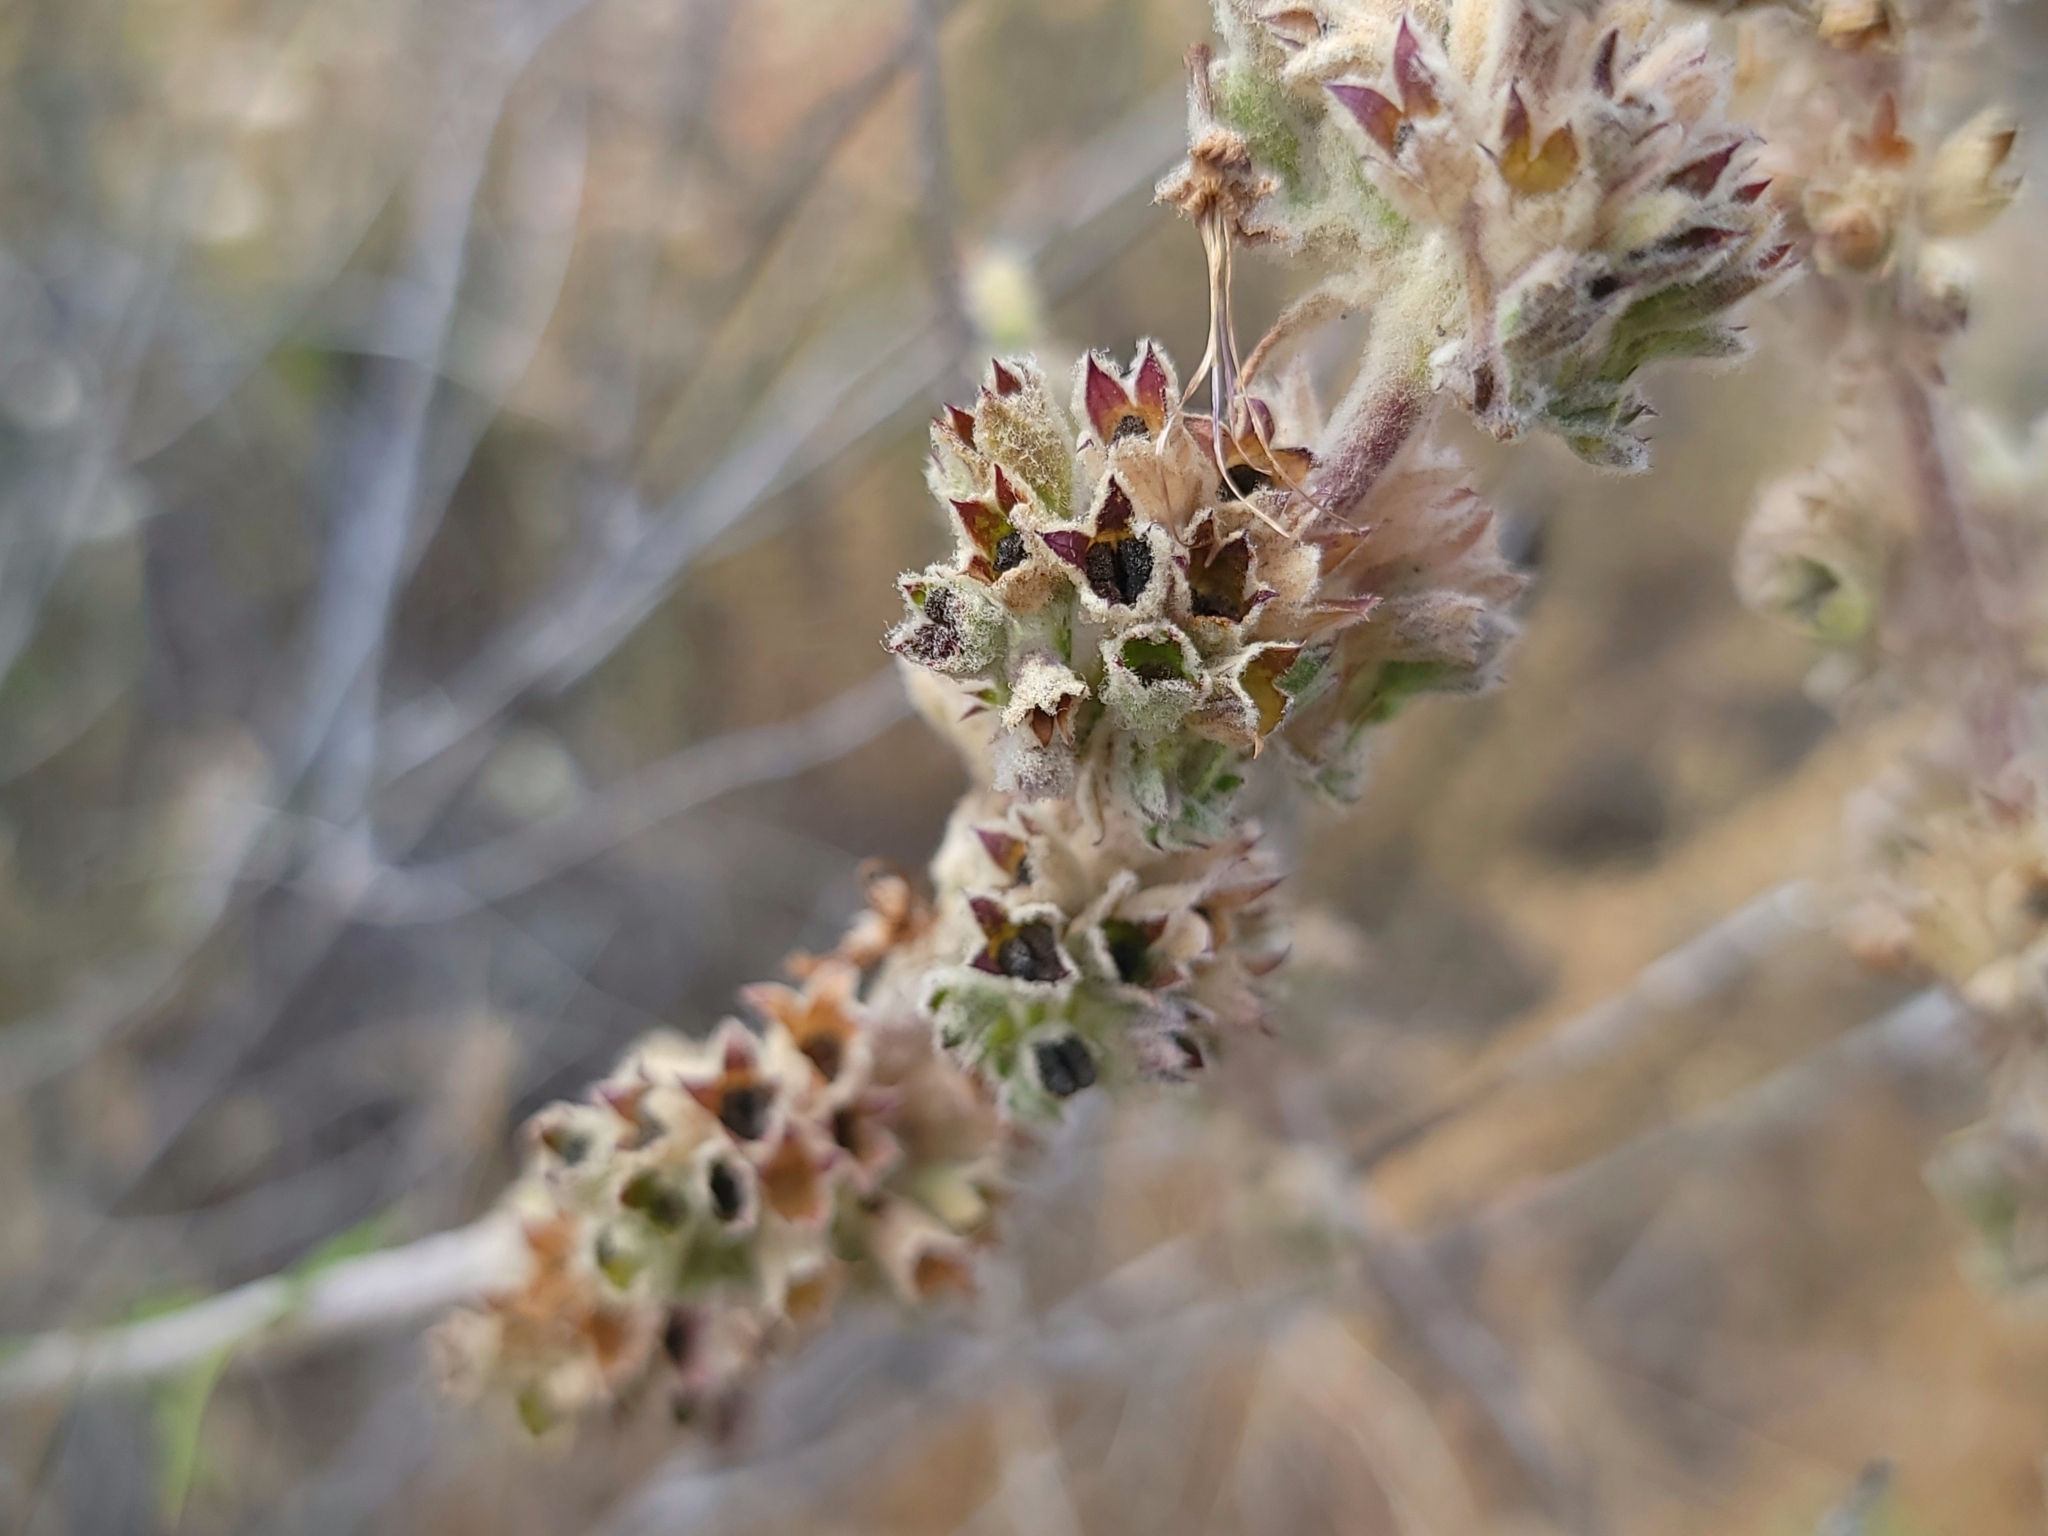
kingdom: Plantae
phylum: Tracheophyta
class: Magnoliopsida
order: Lamiales
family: Lamiaceae
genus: Trichostema
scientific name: Trichostema lanatum
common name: Woolly bluecurls
